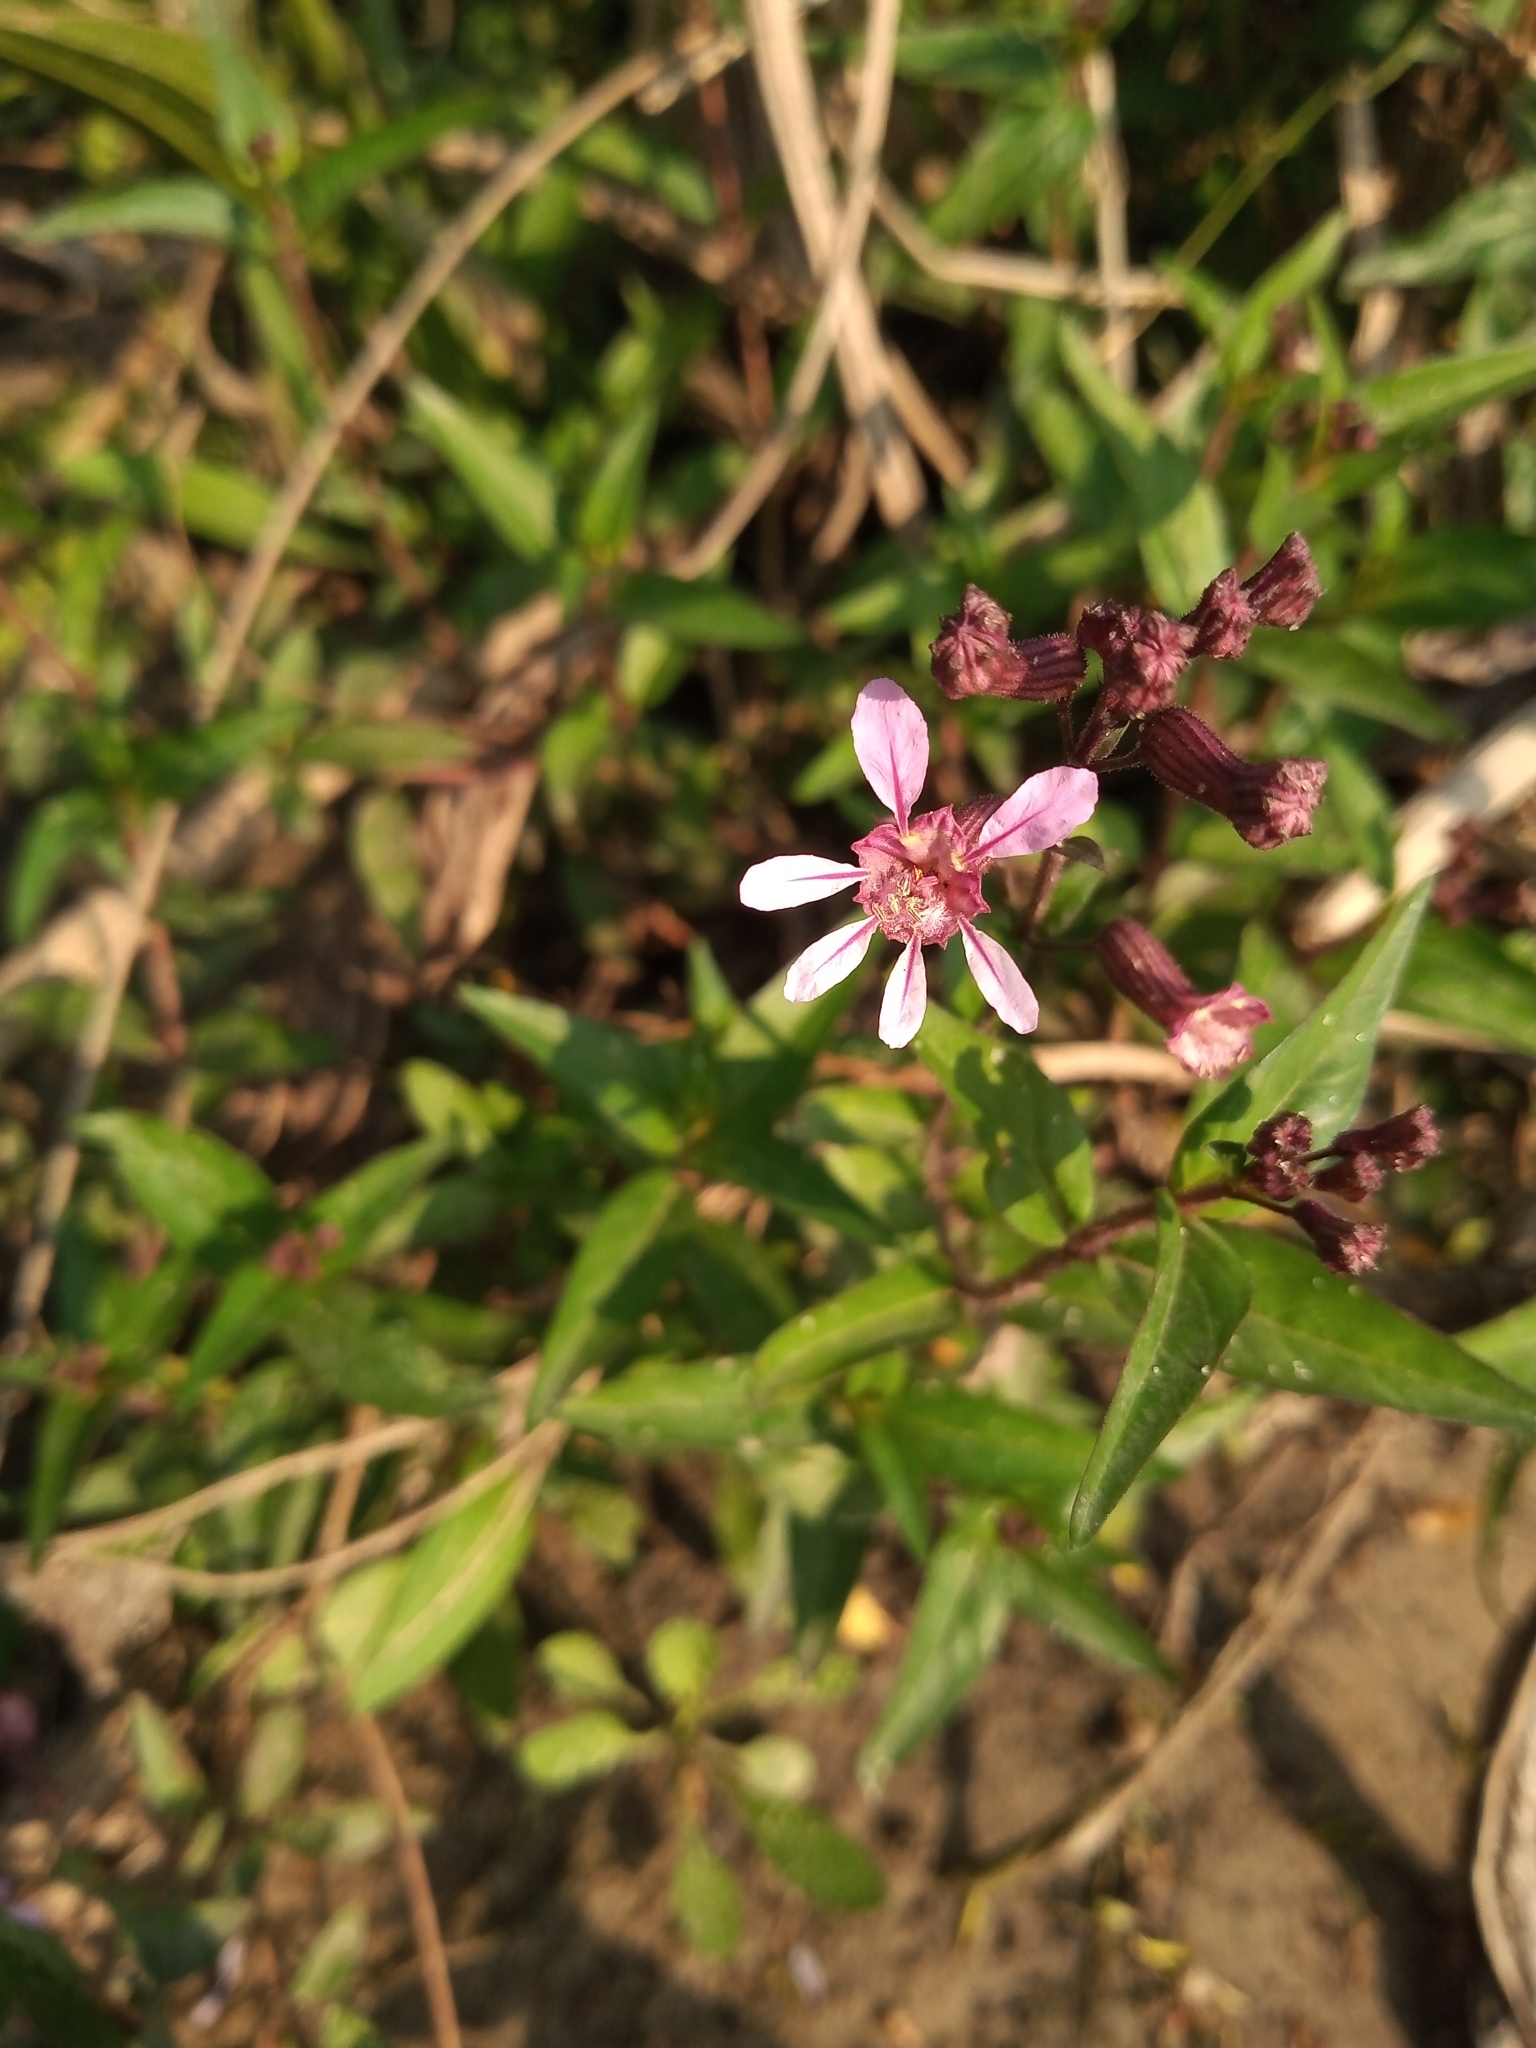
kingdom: Plantae
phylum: Tracheophyta
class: Magnoliopsida
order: Myrtales
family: Lythraceae
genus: Cuphea
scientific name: Cuphea racemosa
